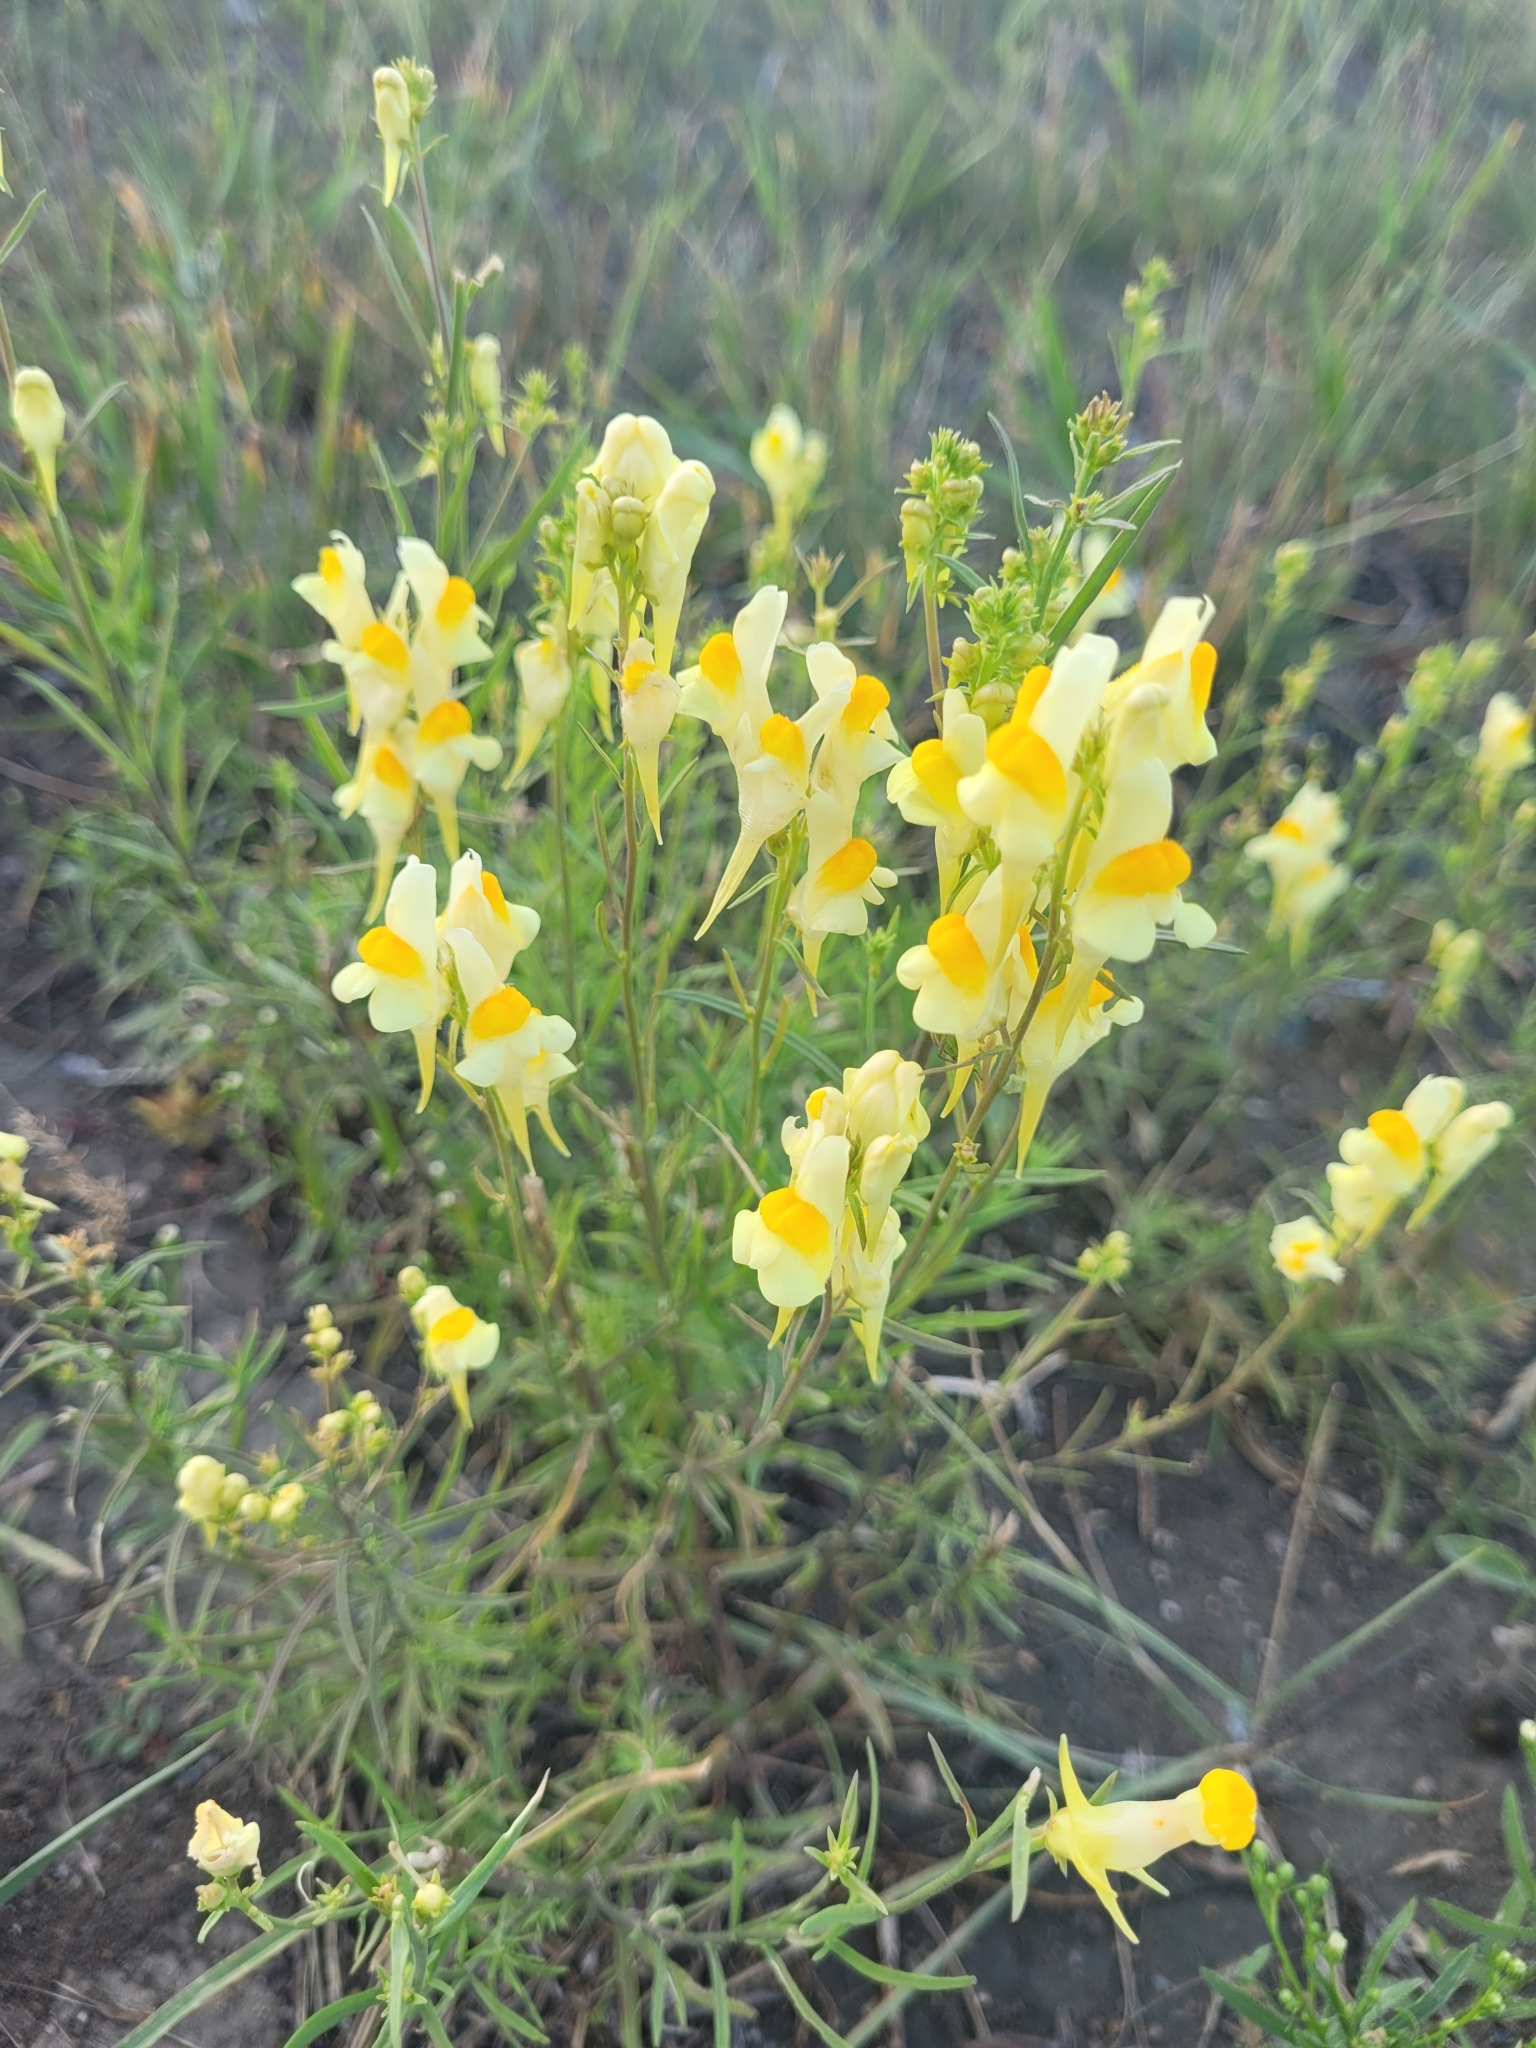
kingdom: Plantae
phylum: Tracheophyta
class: Magnoliopsida
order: Lamiales
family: Plantaginaceae
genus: Linaria
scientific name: Linaria vulgaris
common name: Butter and eggs
